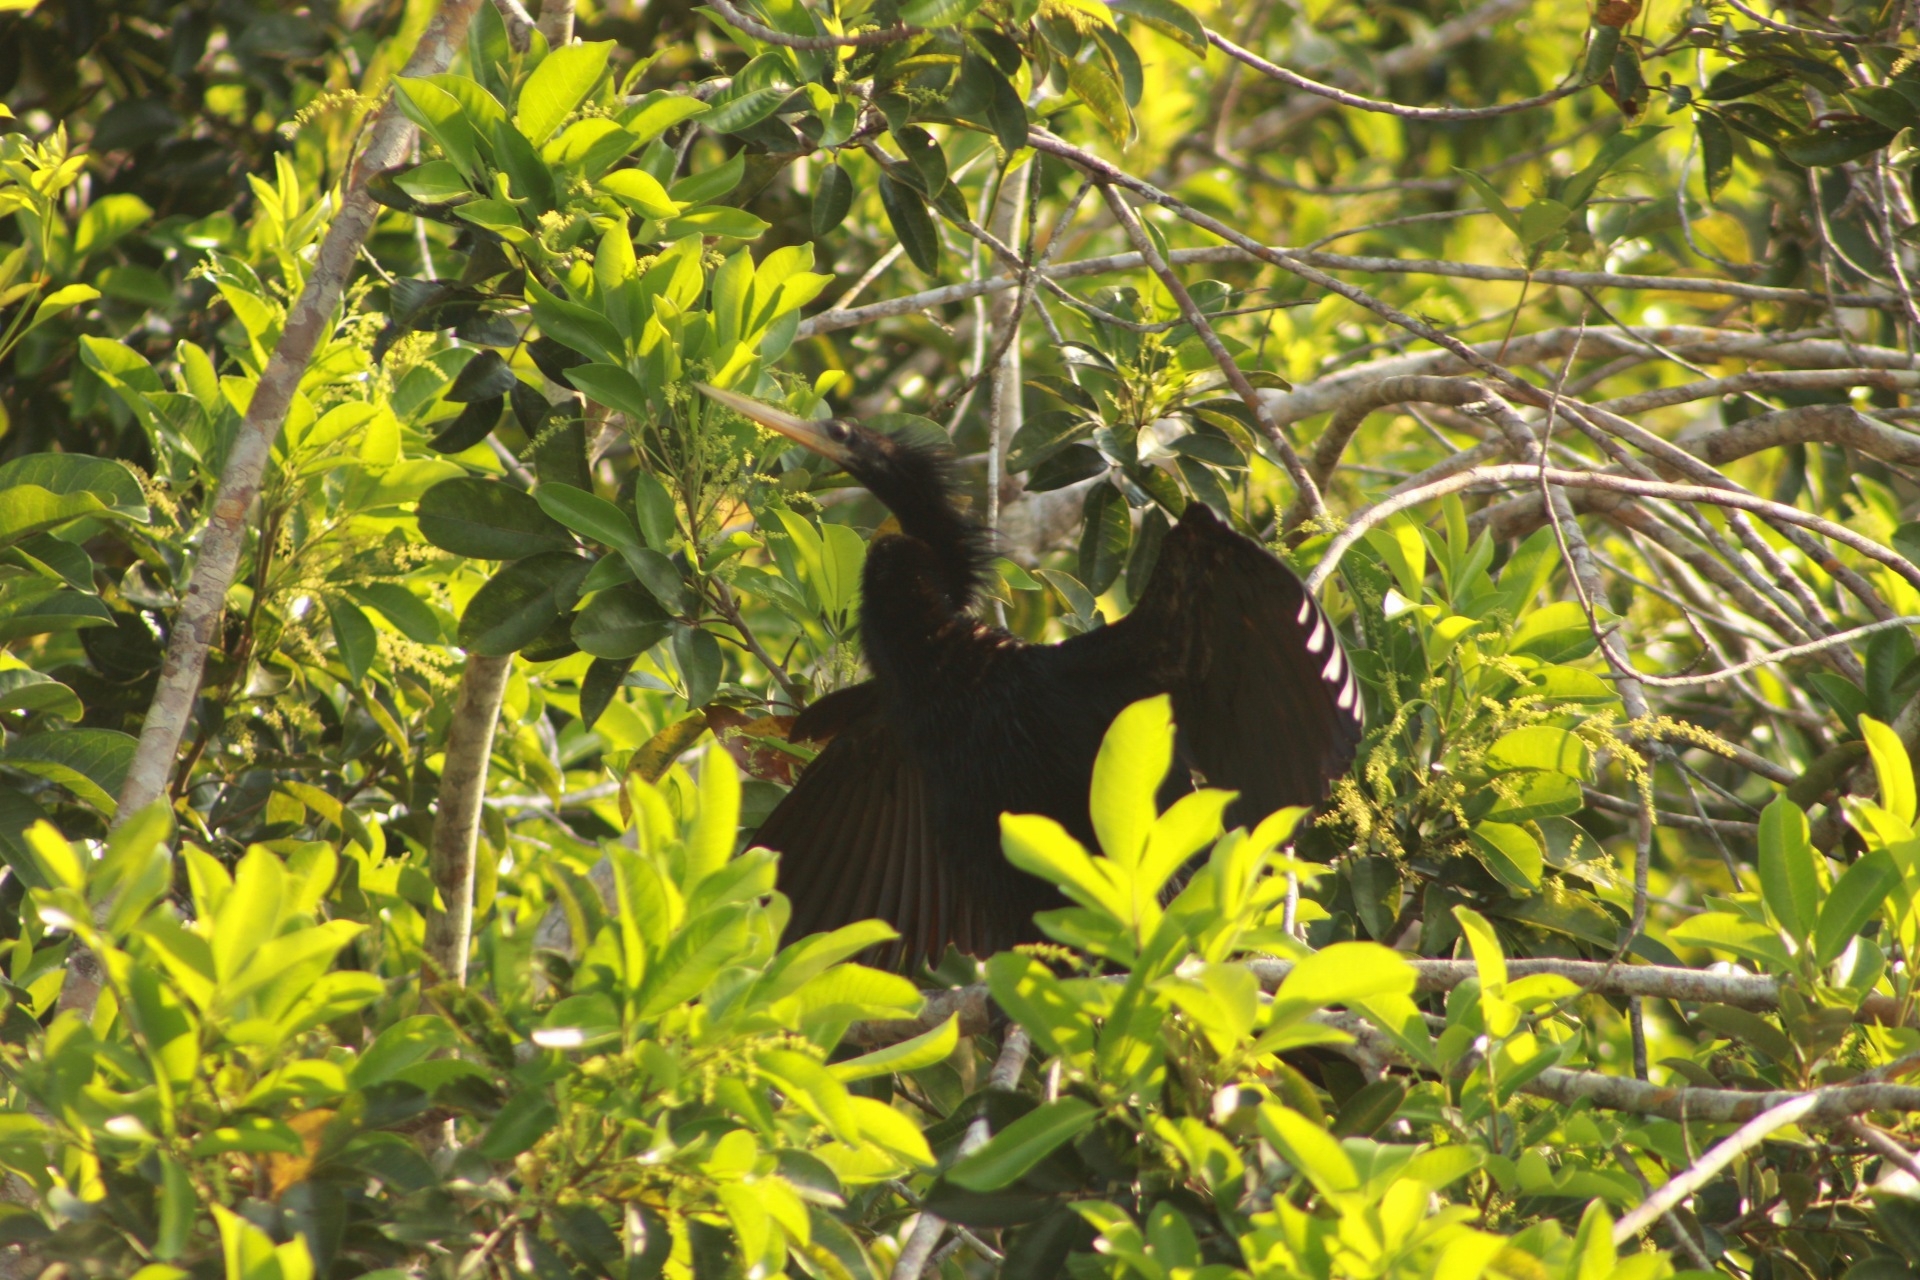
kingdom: Animalia
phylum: Chordata
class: Aves
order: Suliformes
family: Anhingidae
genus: Anhinga
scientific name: Anhinga anhinga
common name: Anhinga
